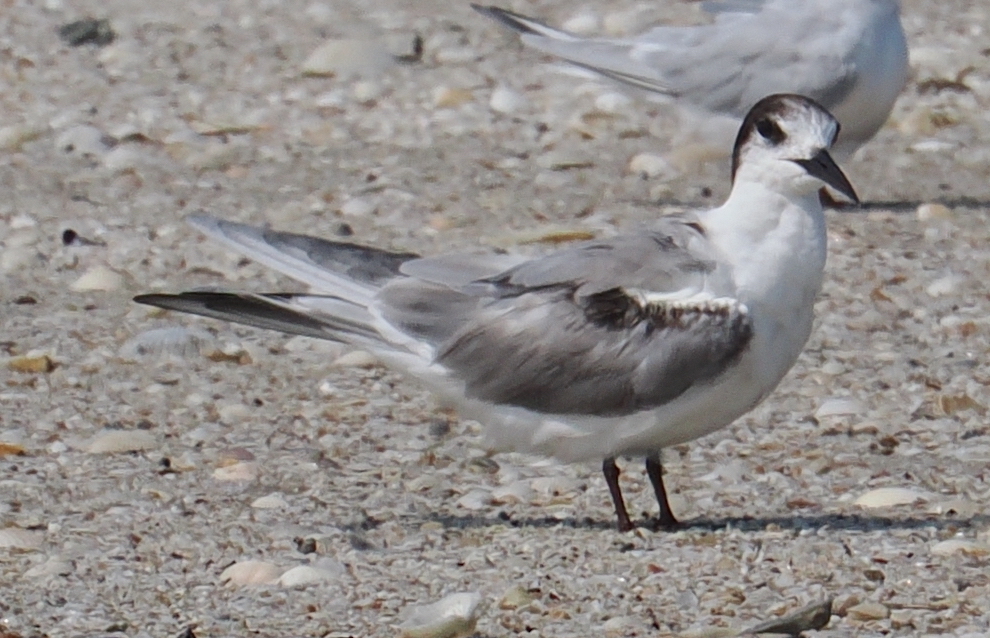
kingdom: Animalia
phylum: Chordata
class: Aves
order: Charadriiformes
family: Laridae
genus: Sterna
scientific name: Sterna hirundo
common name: Common tern
